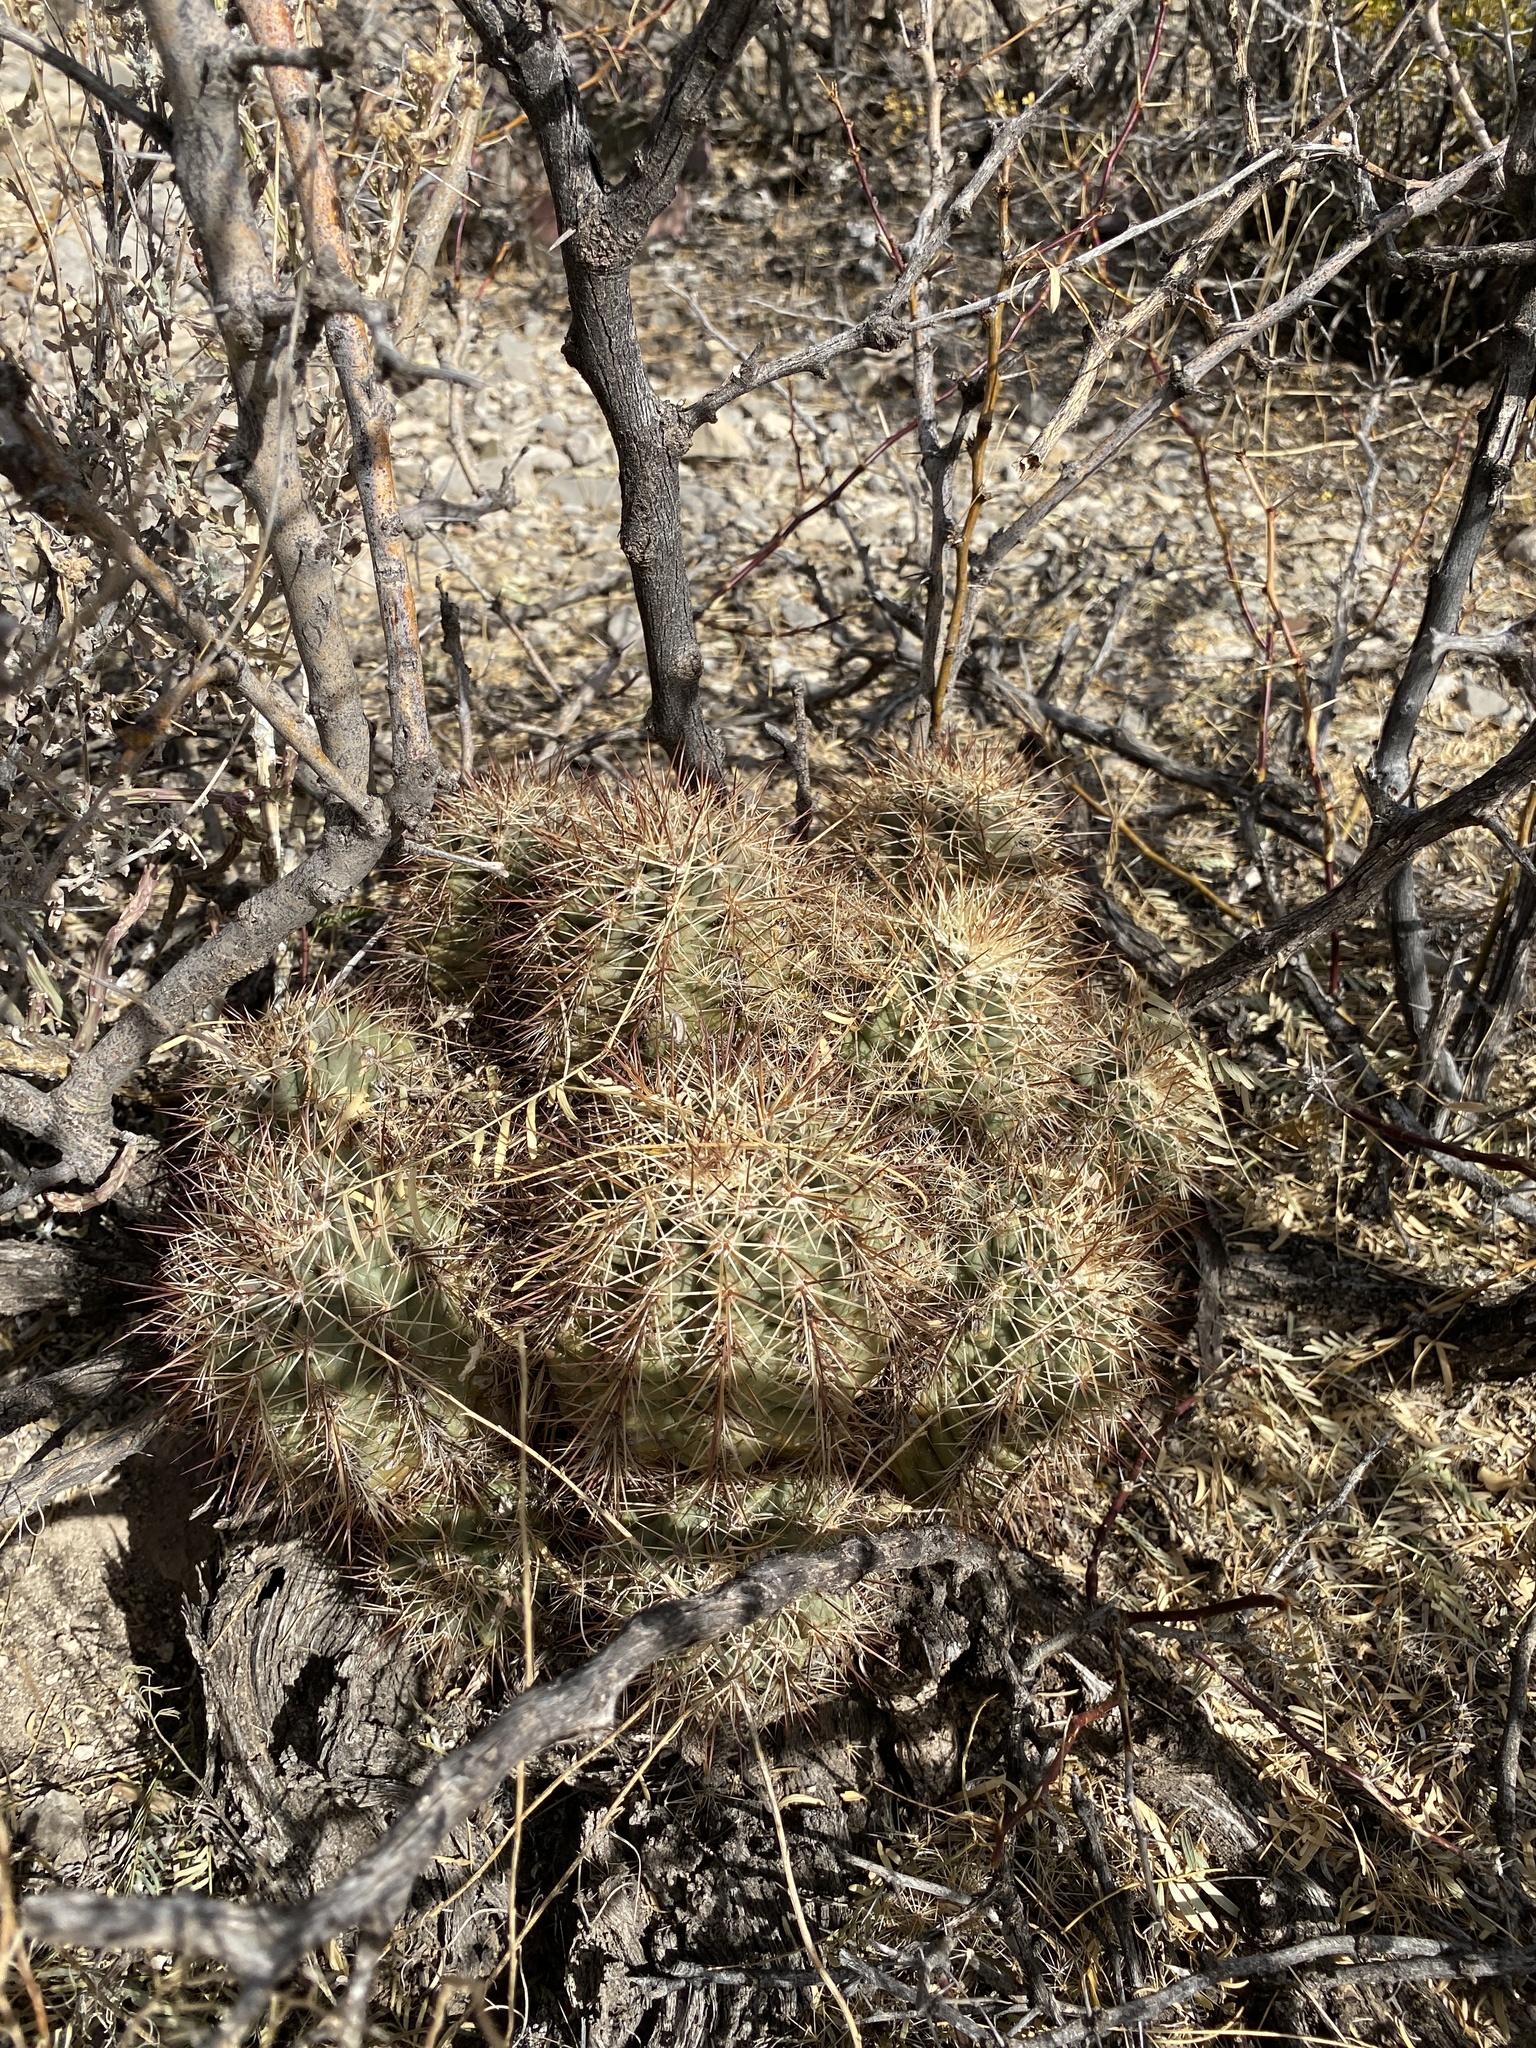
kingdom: Plantae
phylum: Tracheophyta
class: Magnoliopsida
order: Caryophyllales
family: Cactaceae
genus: Echinocereus
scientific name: Echinocereus coccineus
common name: Scarlet hedgehog cactus
